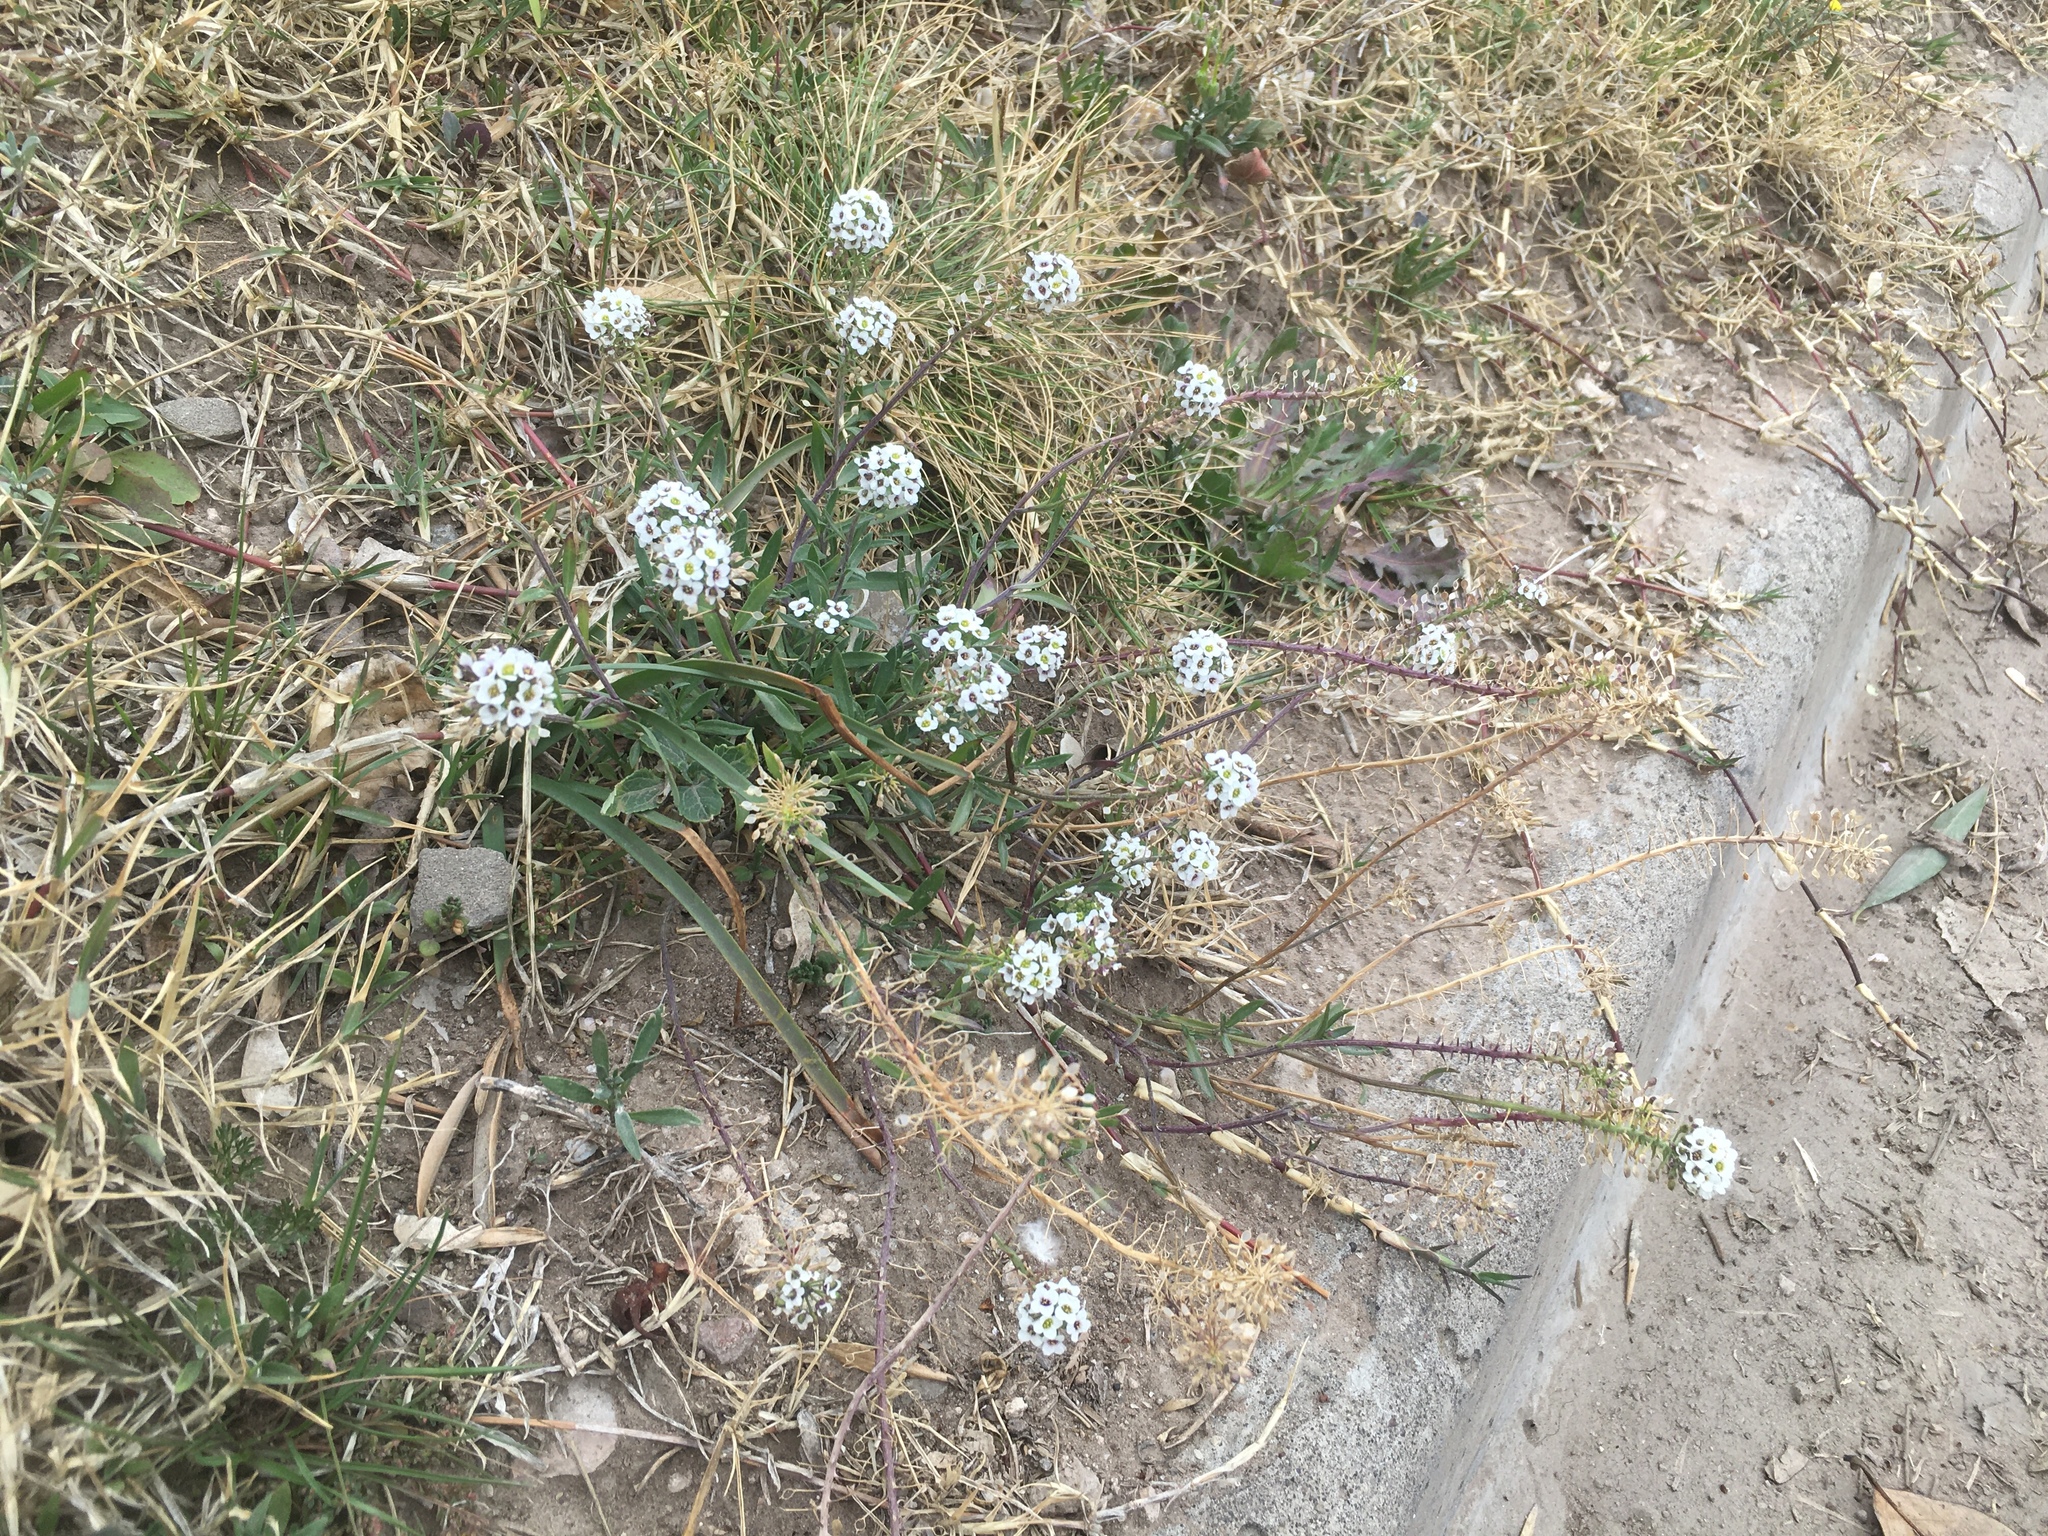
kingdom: Plantae
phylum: Tracheophyta
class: Magnoliopsida
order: Brassicales
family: Brassicaceae
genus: Lobularia
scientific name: Lobularia maritima
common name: Sweet alison
